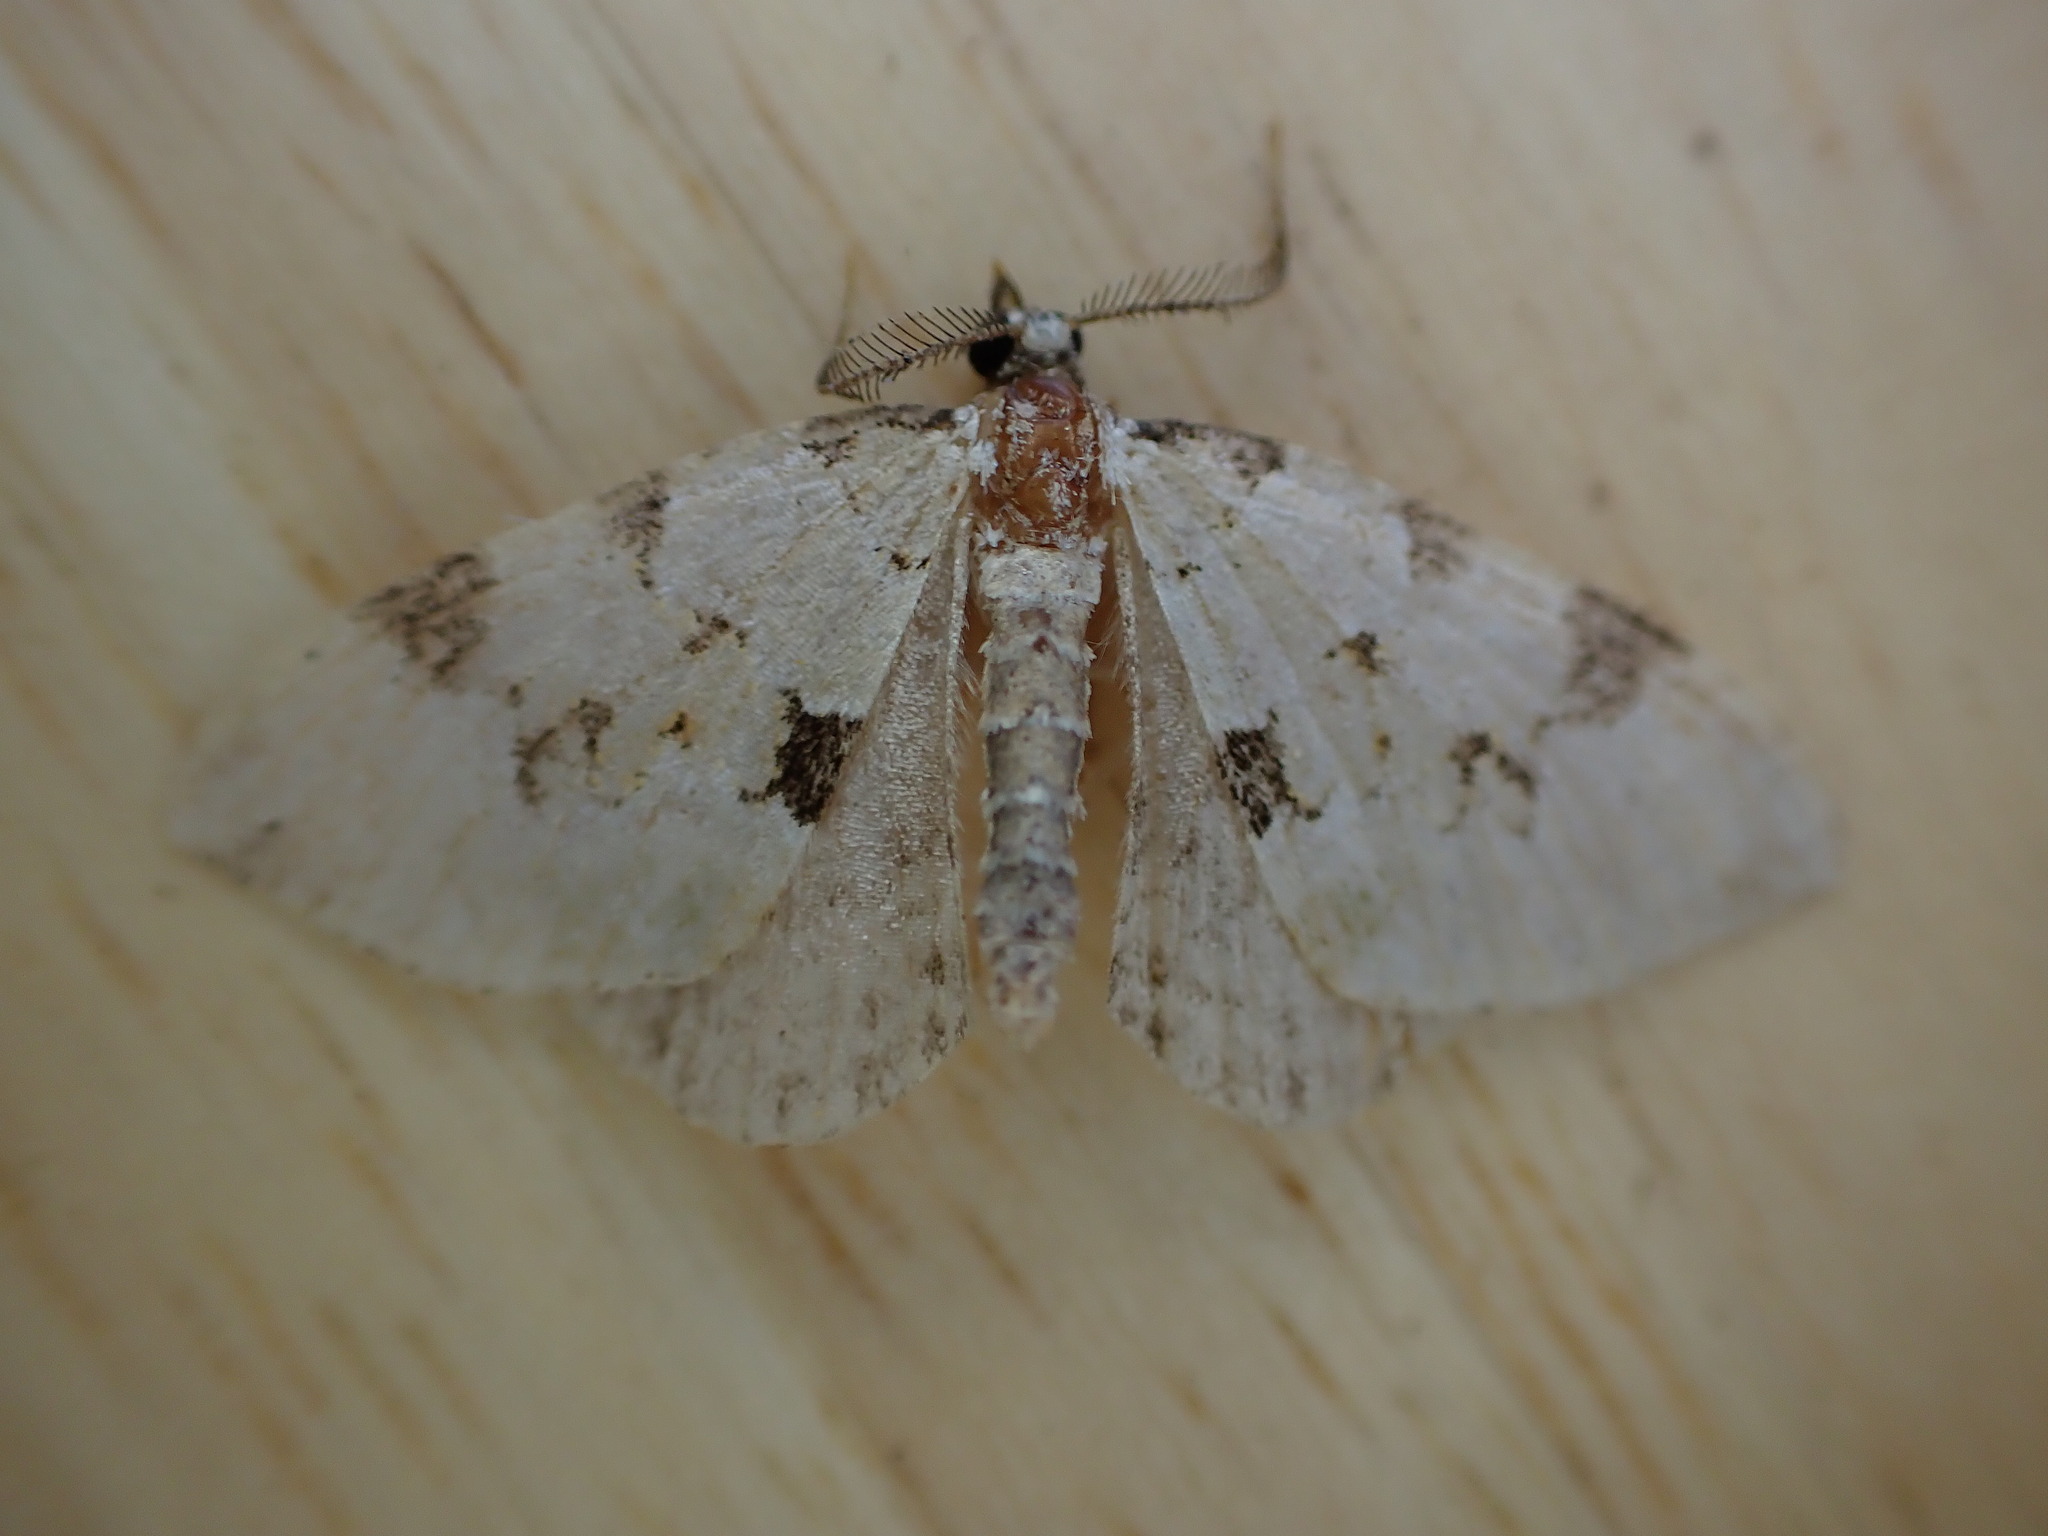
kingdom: Animalia
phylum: Arthropoda
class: Insecta
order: Lepidoptera
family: Geometridae
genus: Colostygia
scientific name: Colostygia pectinataria
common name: Green carpet
